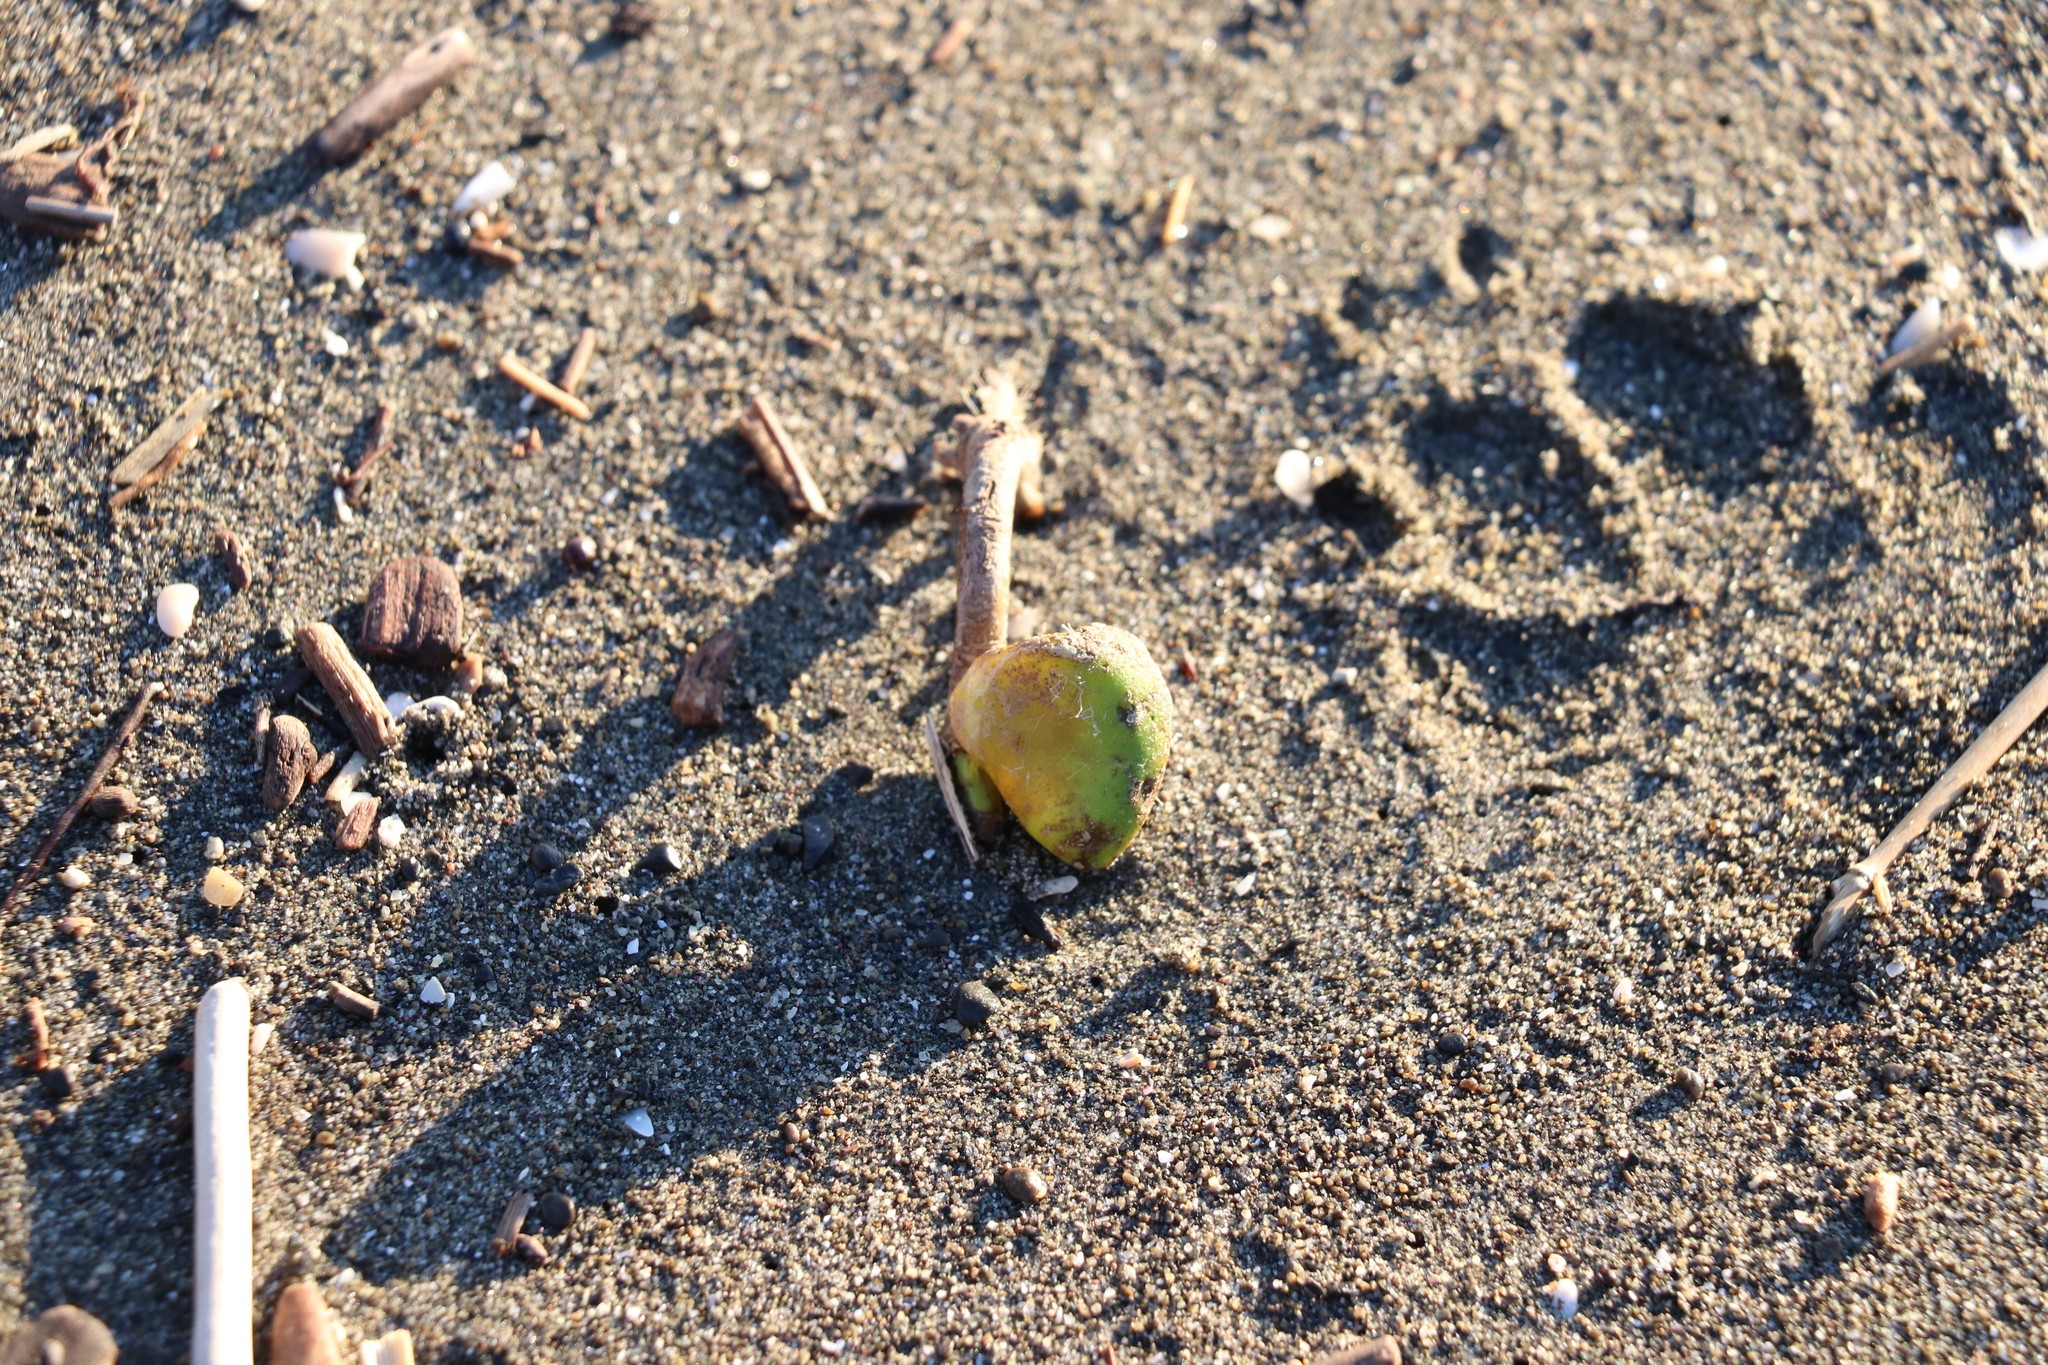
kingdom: Plantae
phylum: Tracheophyta
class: Magnoliopsida
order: Lamiales
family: Acanthaceae
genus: Avicennia
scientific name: Avicennia marina
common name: Gray mangrove
